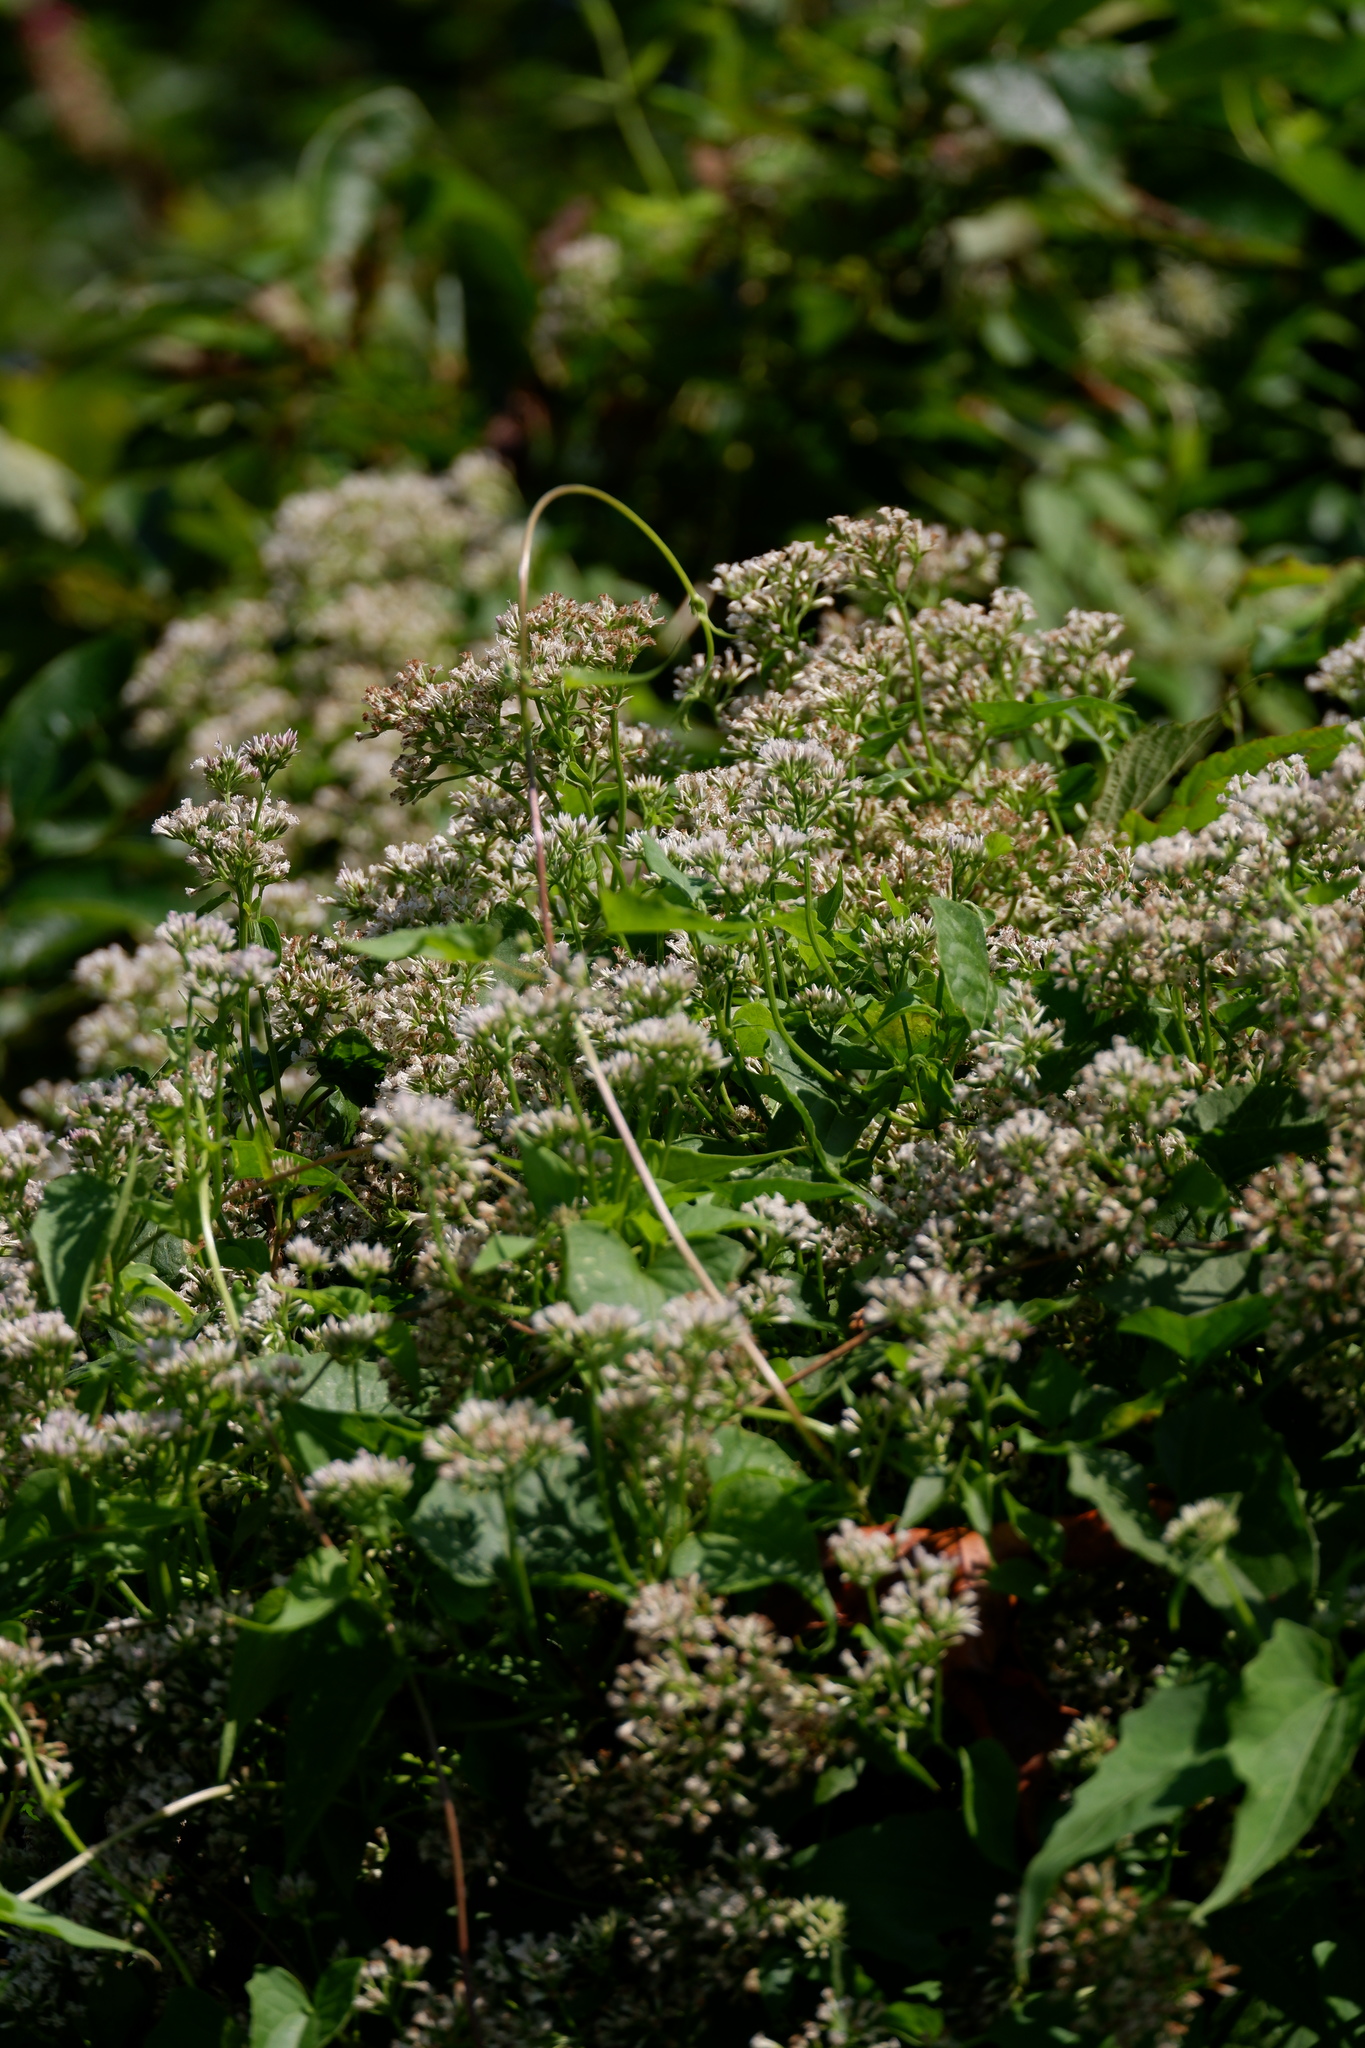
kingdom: Plantae
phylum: Tracheophyta
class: Magnoliopsida
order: Asterales
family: Asteraceae
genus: Mikania
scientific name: Mikania scandens
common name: Climbing hempvine
